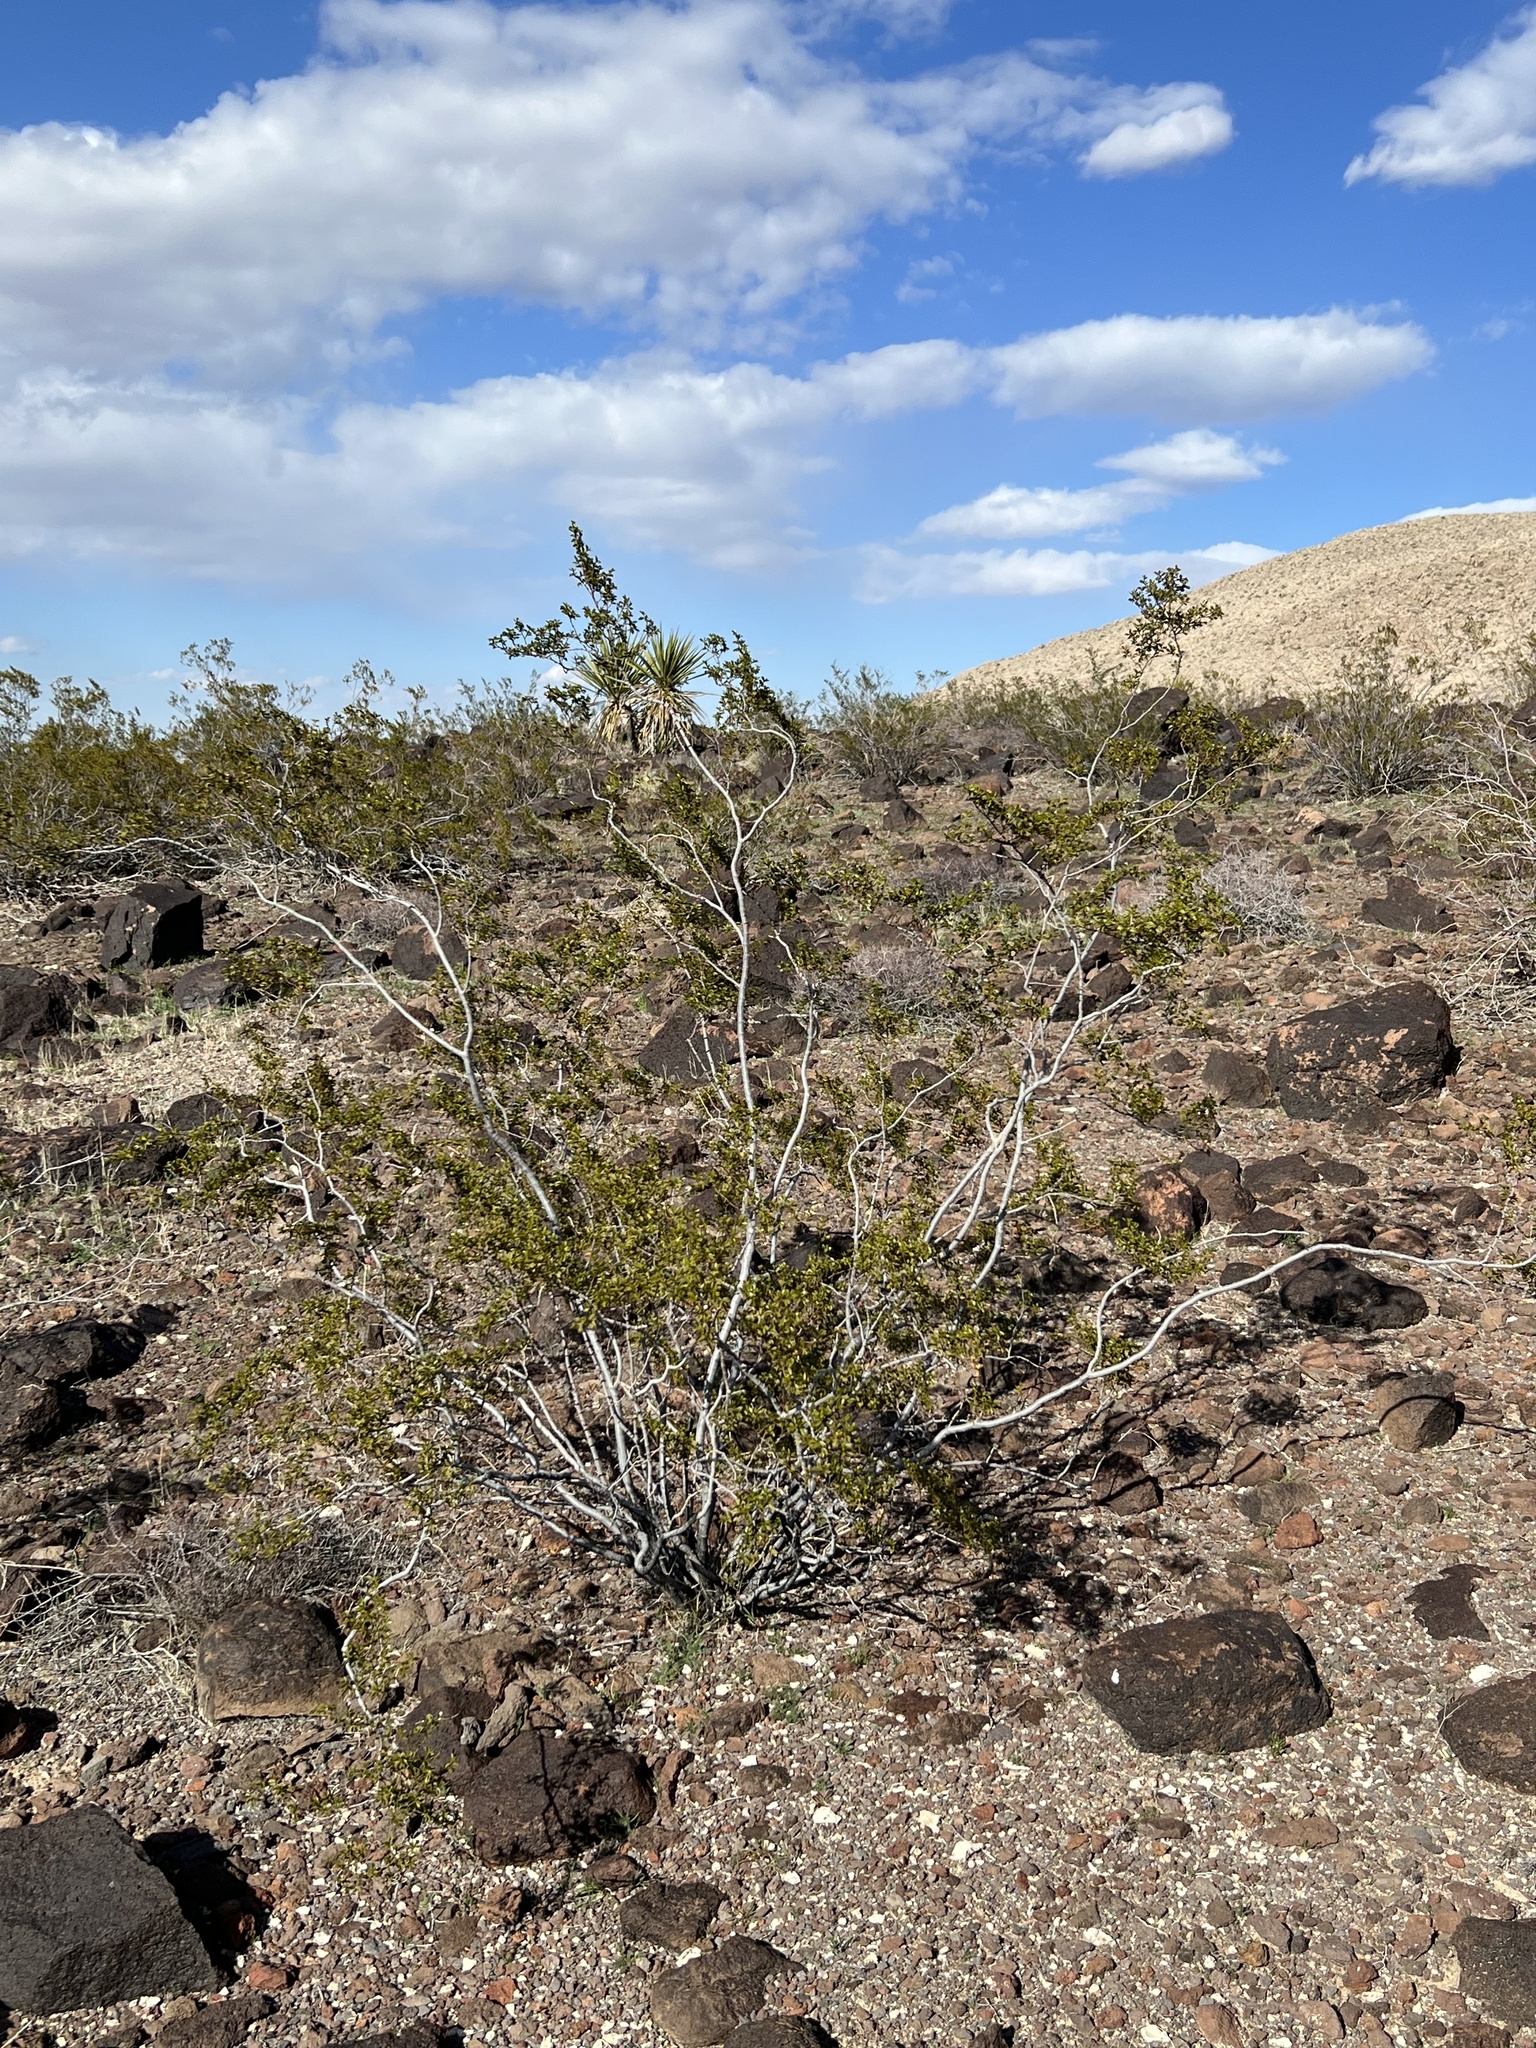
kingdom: Plantae
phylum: Tracheophyta
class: Magnoliopsida
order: Zygophyllales
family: Zygophyllaceae
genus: Larrea
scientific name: Larrea tridentata
